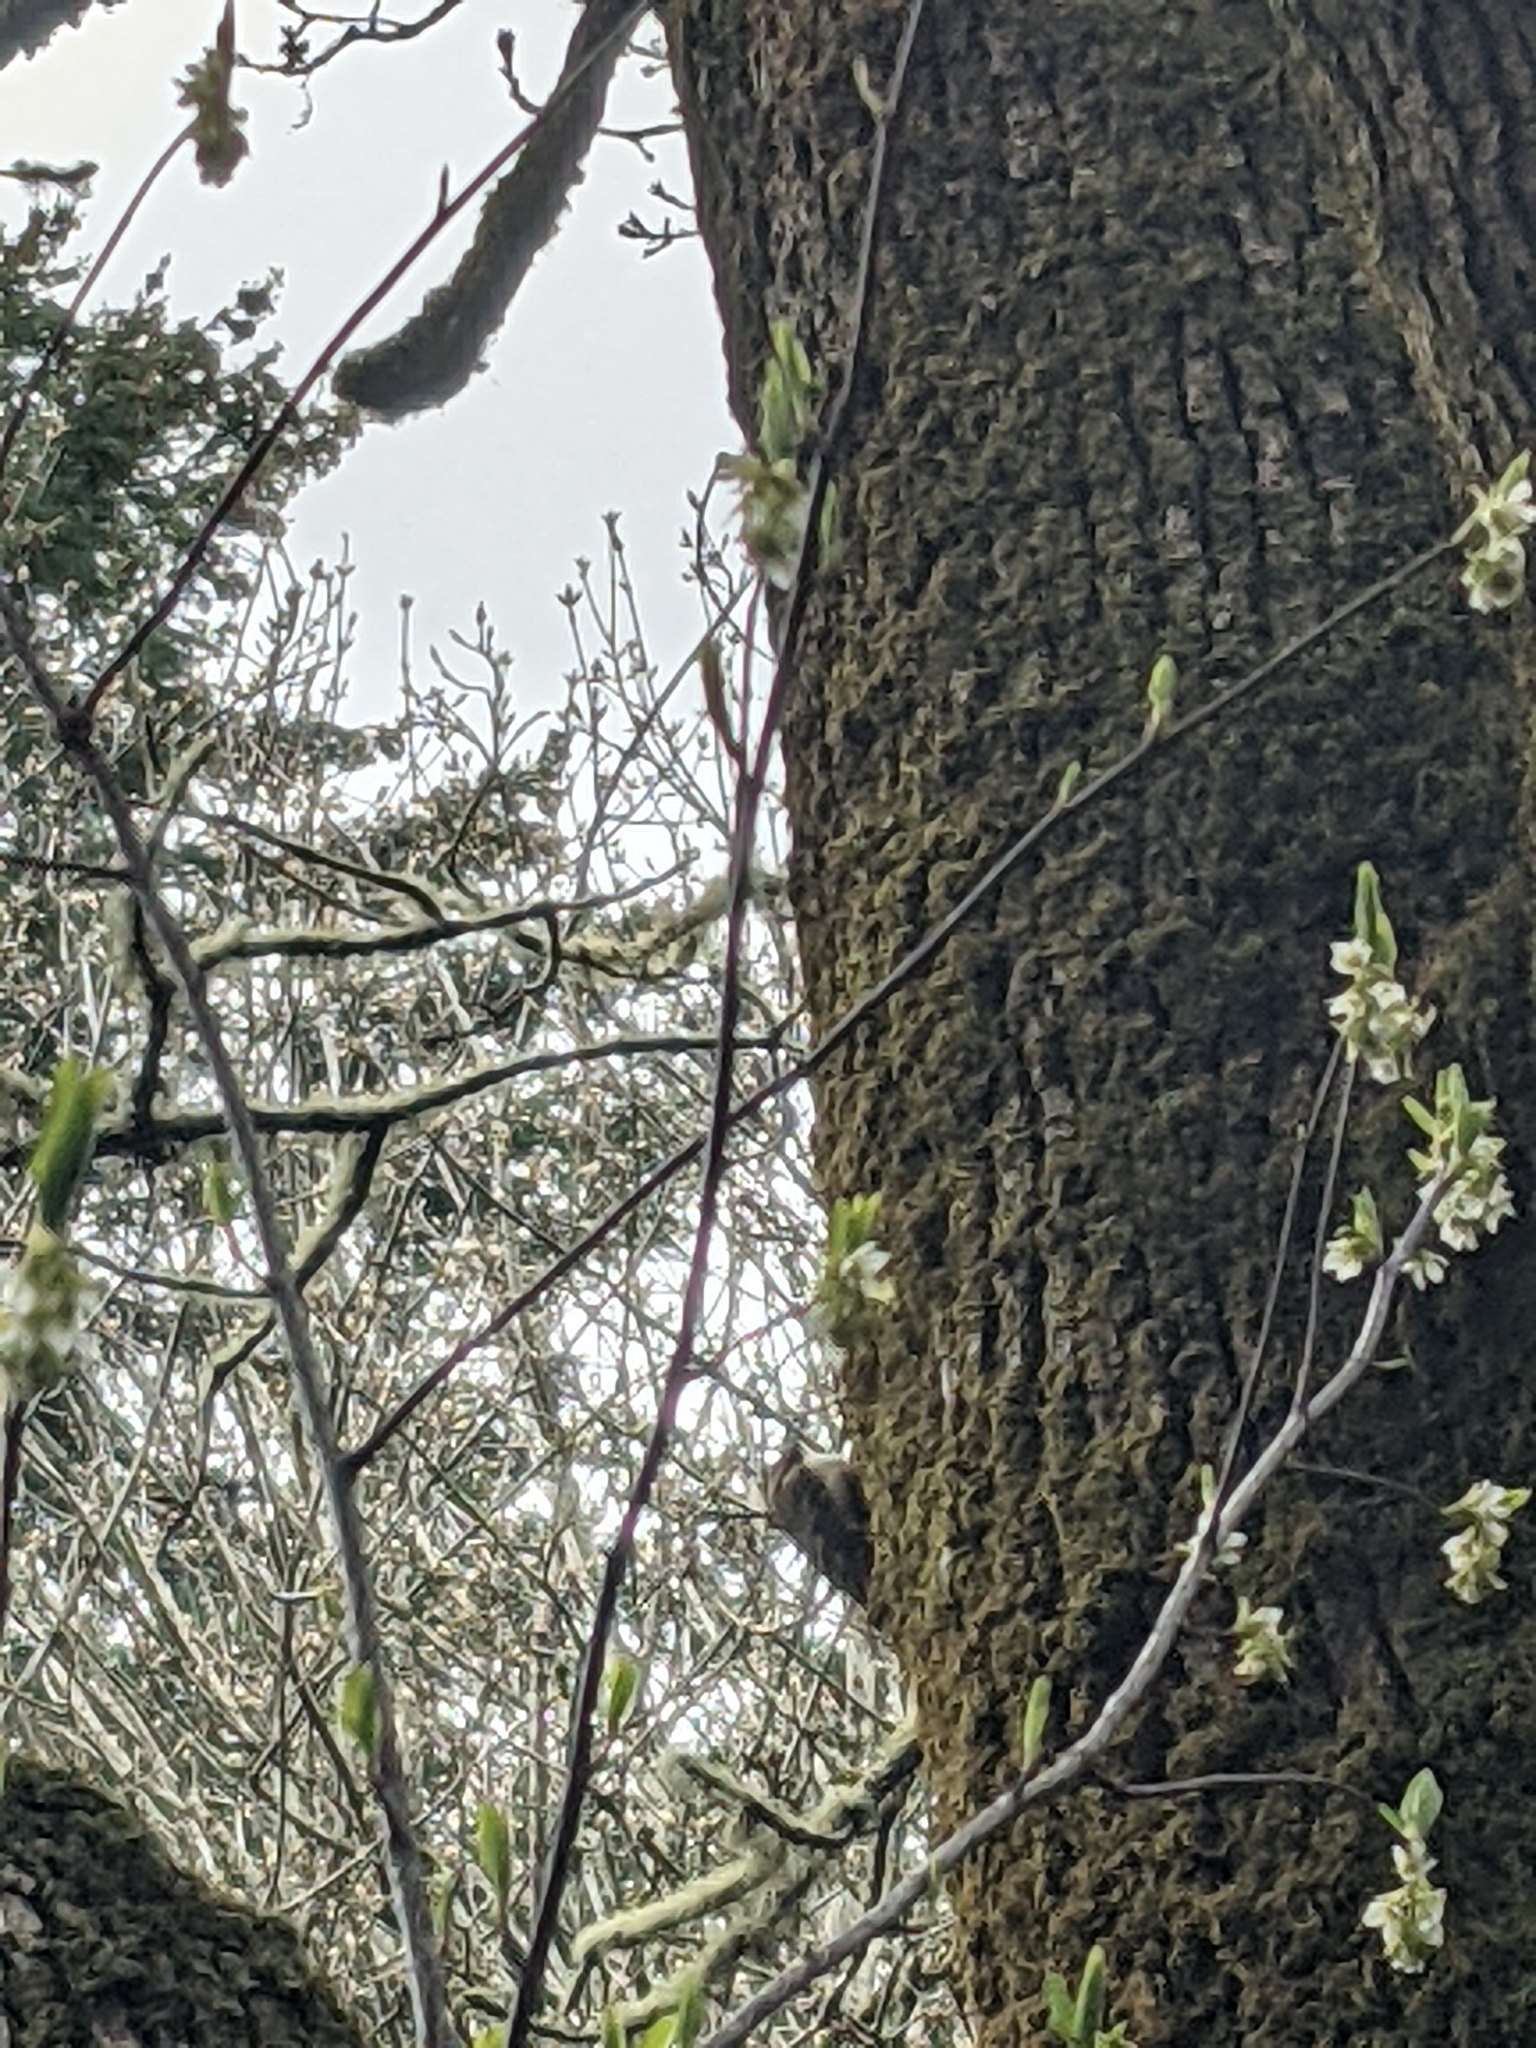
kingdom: Animalia
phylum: Chordata
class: Aves
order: Passeriformes
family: Certhiidae
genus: Certhia
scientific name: Certhia americana
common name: Brown creeper
